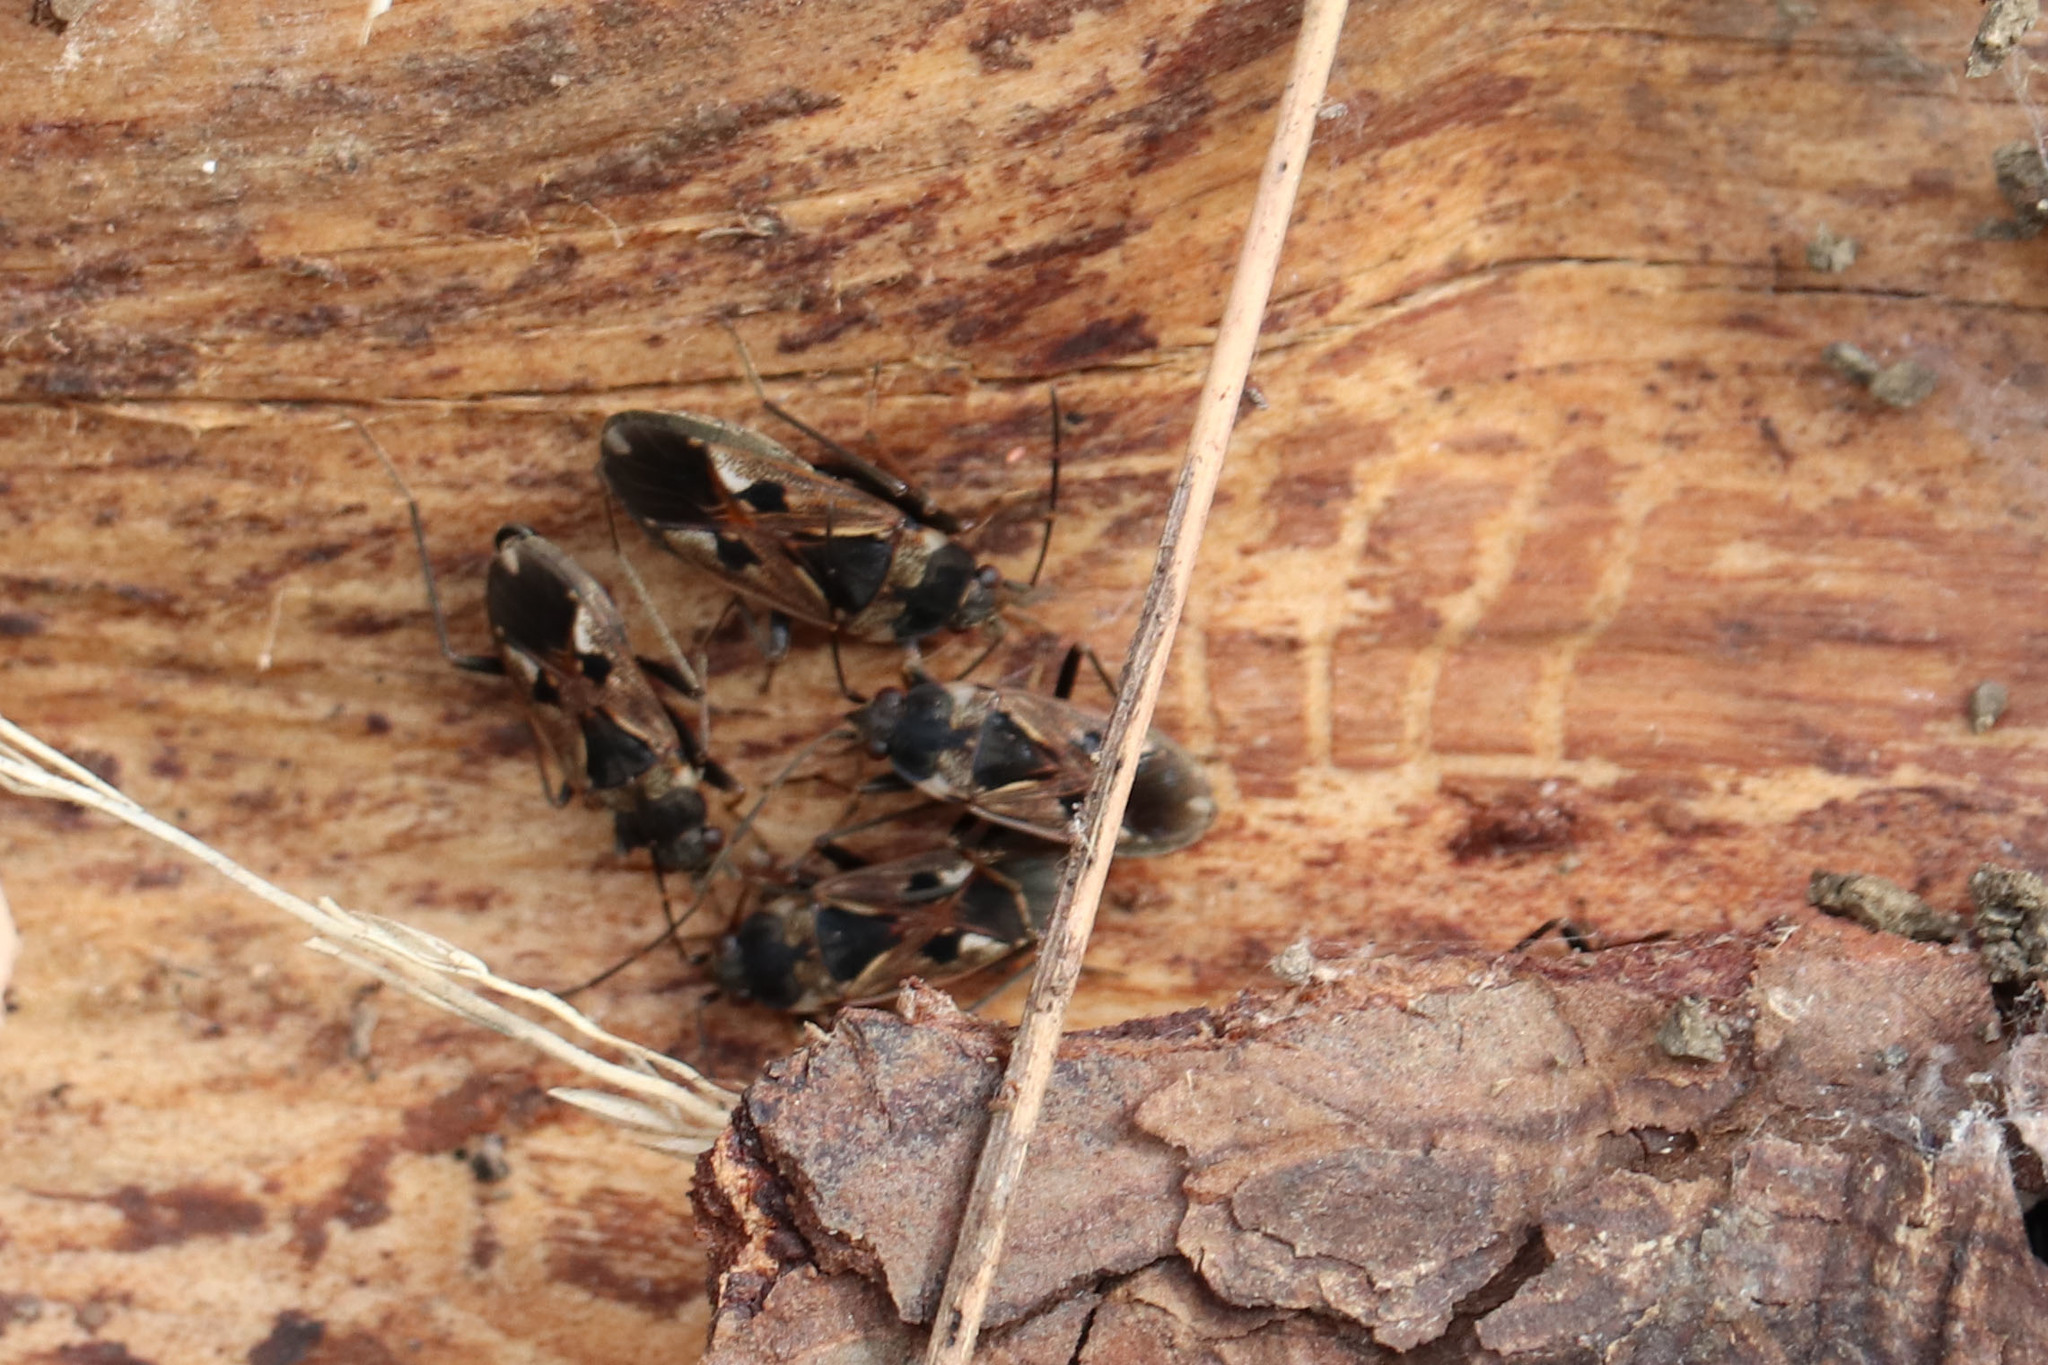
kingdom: Animalia
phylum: Arthropoda
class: Insecta
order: Hemiptera
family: Rhyparochromidae
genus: Rhyparochromus
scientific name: Rhyparochromus vulgaris
